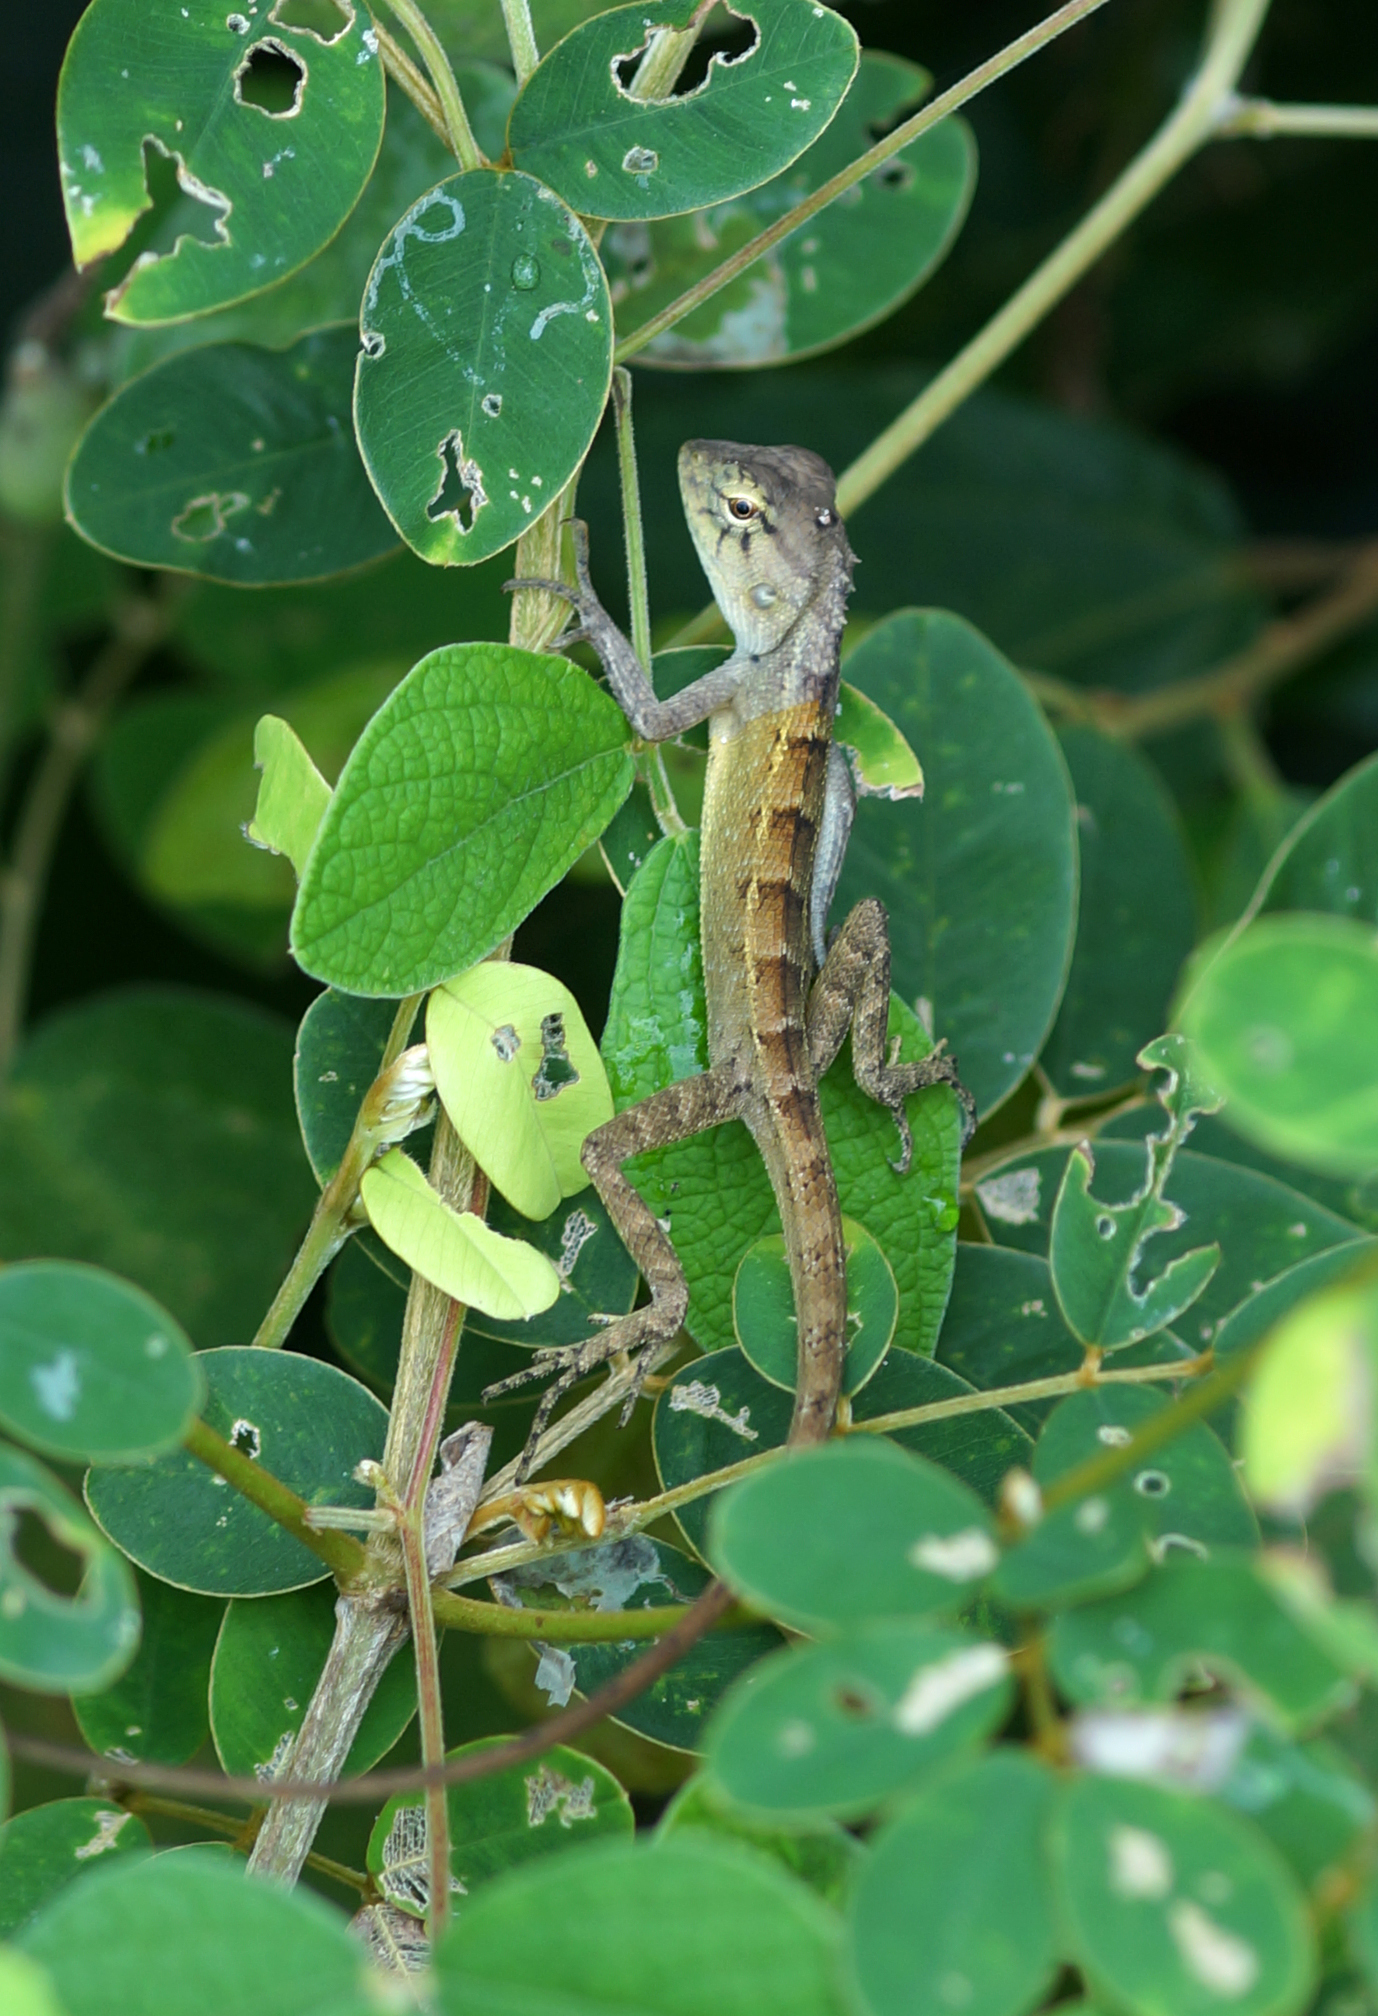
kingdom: Animalia
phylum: Chordata
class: Squamata
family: Agamidae
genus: Calotes
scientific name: Calotes versicolor
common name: Oriental garden lizard
